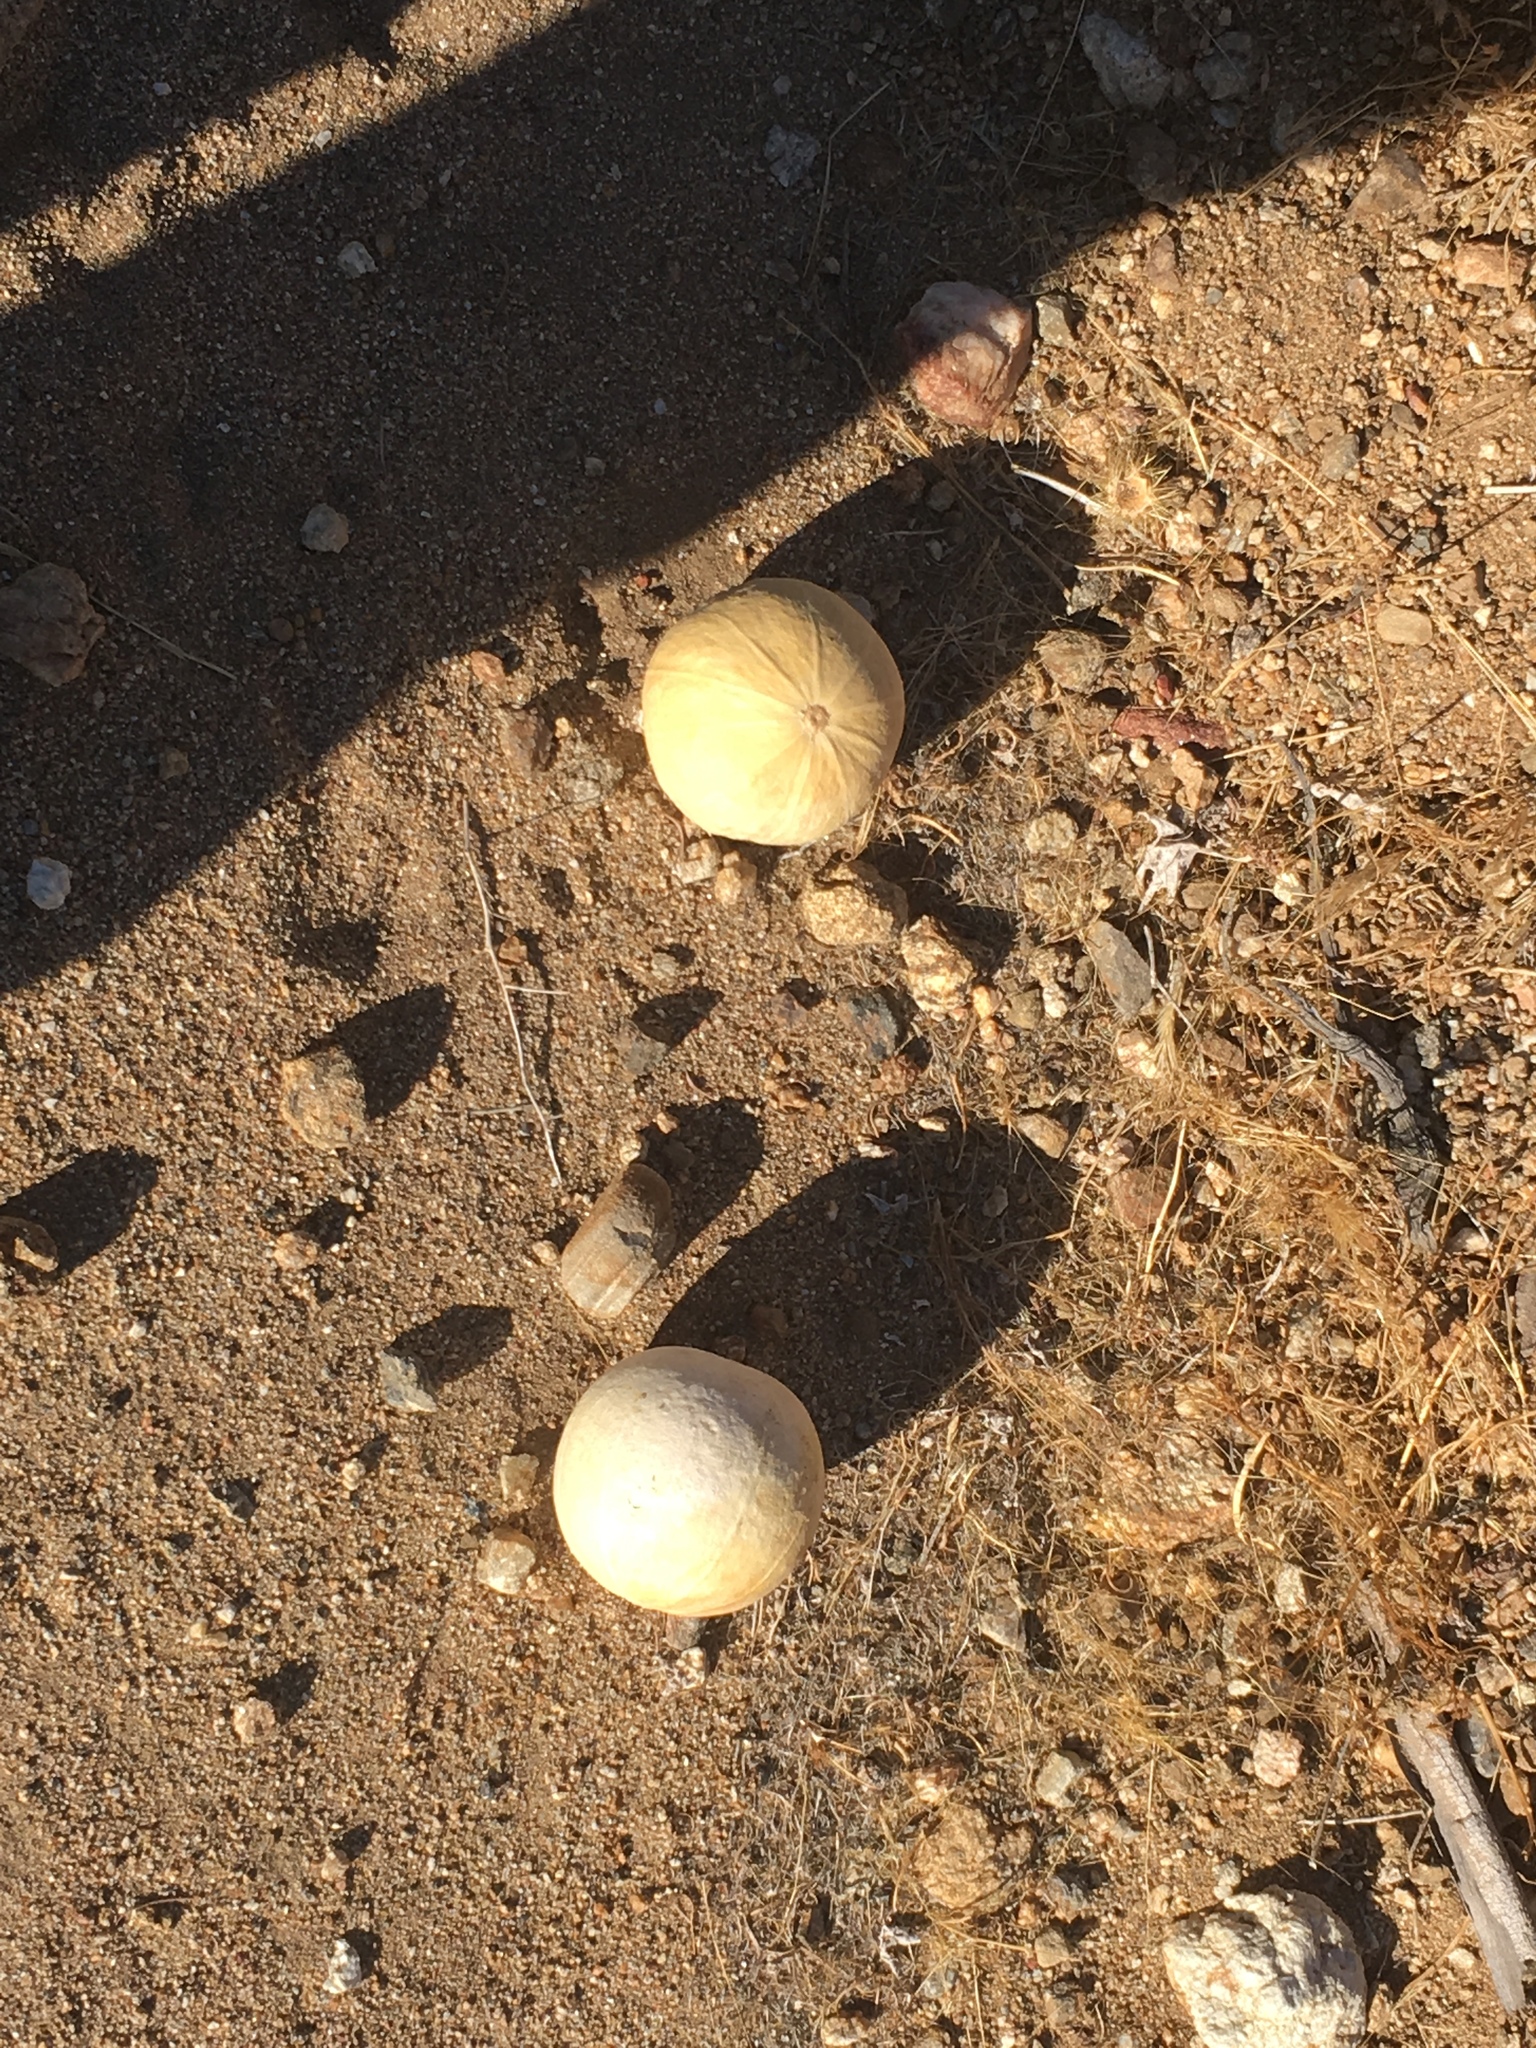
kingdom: Plantae
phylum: Tracheophyta
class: Magnoliopsida
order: Cucurbitales
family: Cucurbitaceae
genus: Cucurbita
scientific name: Cucurbita palmata
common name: Coyote-melon
